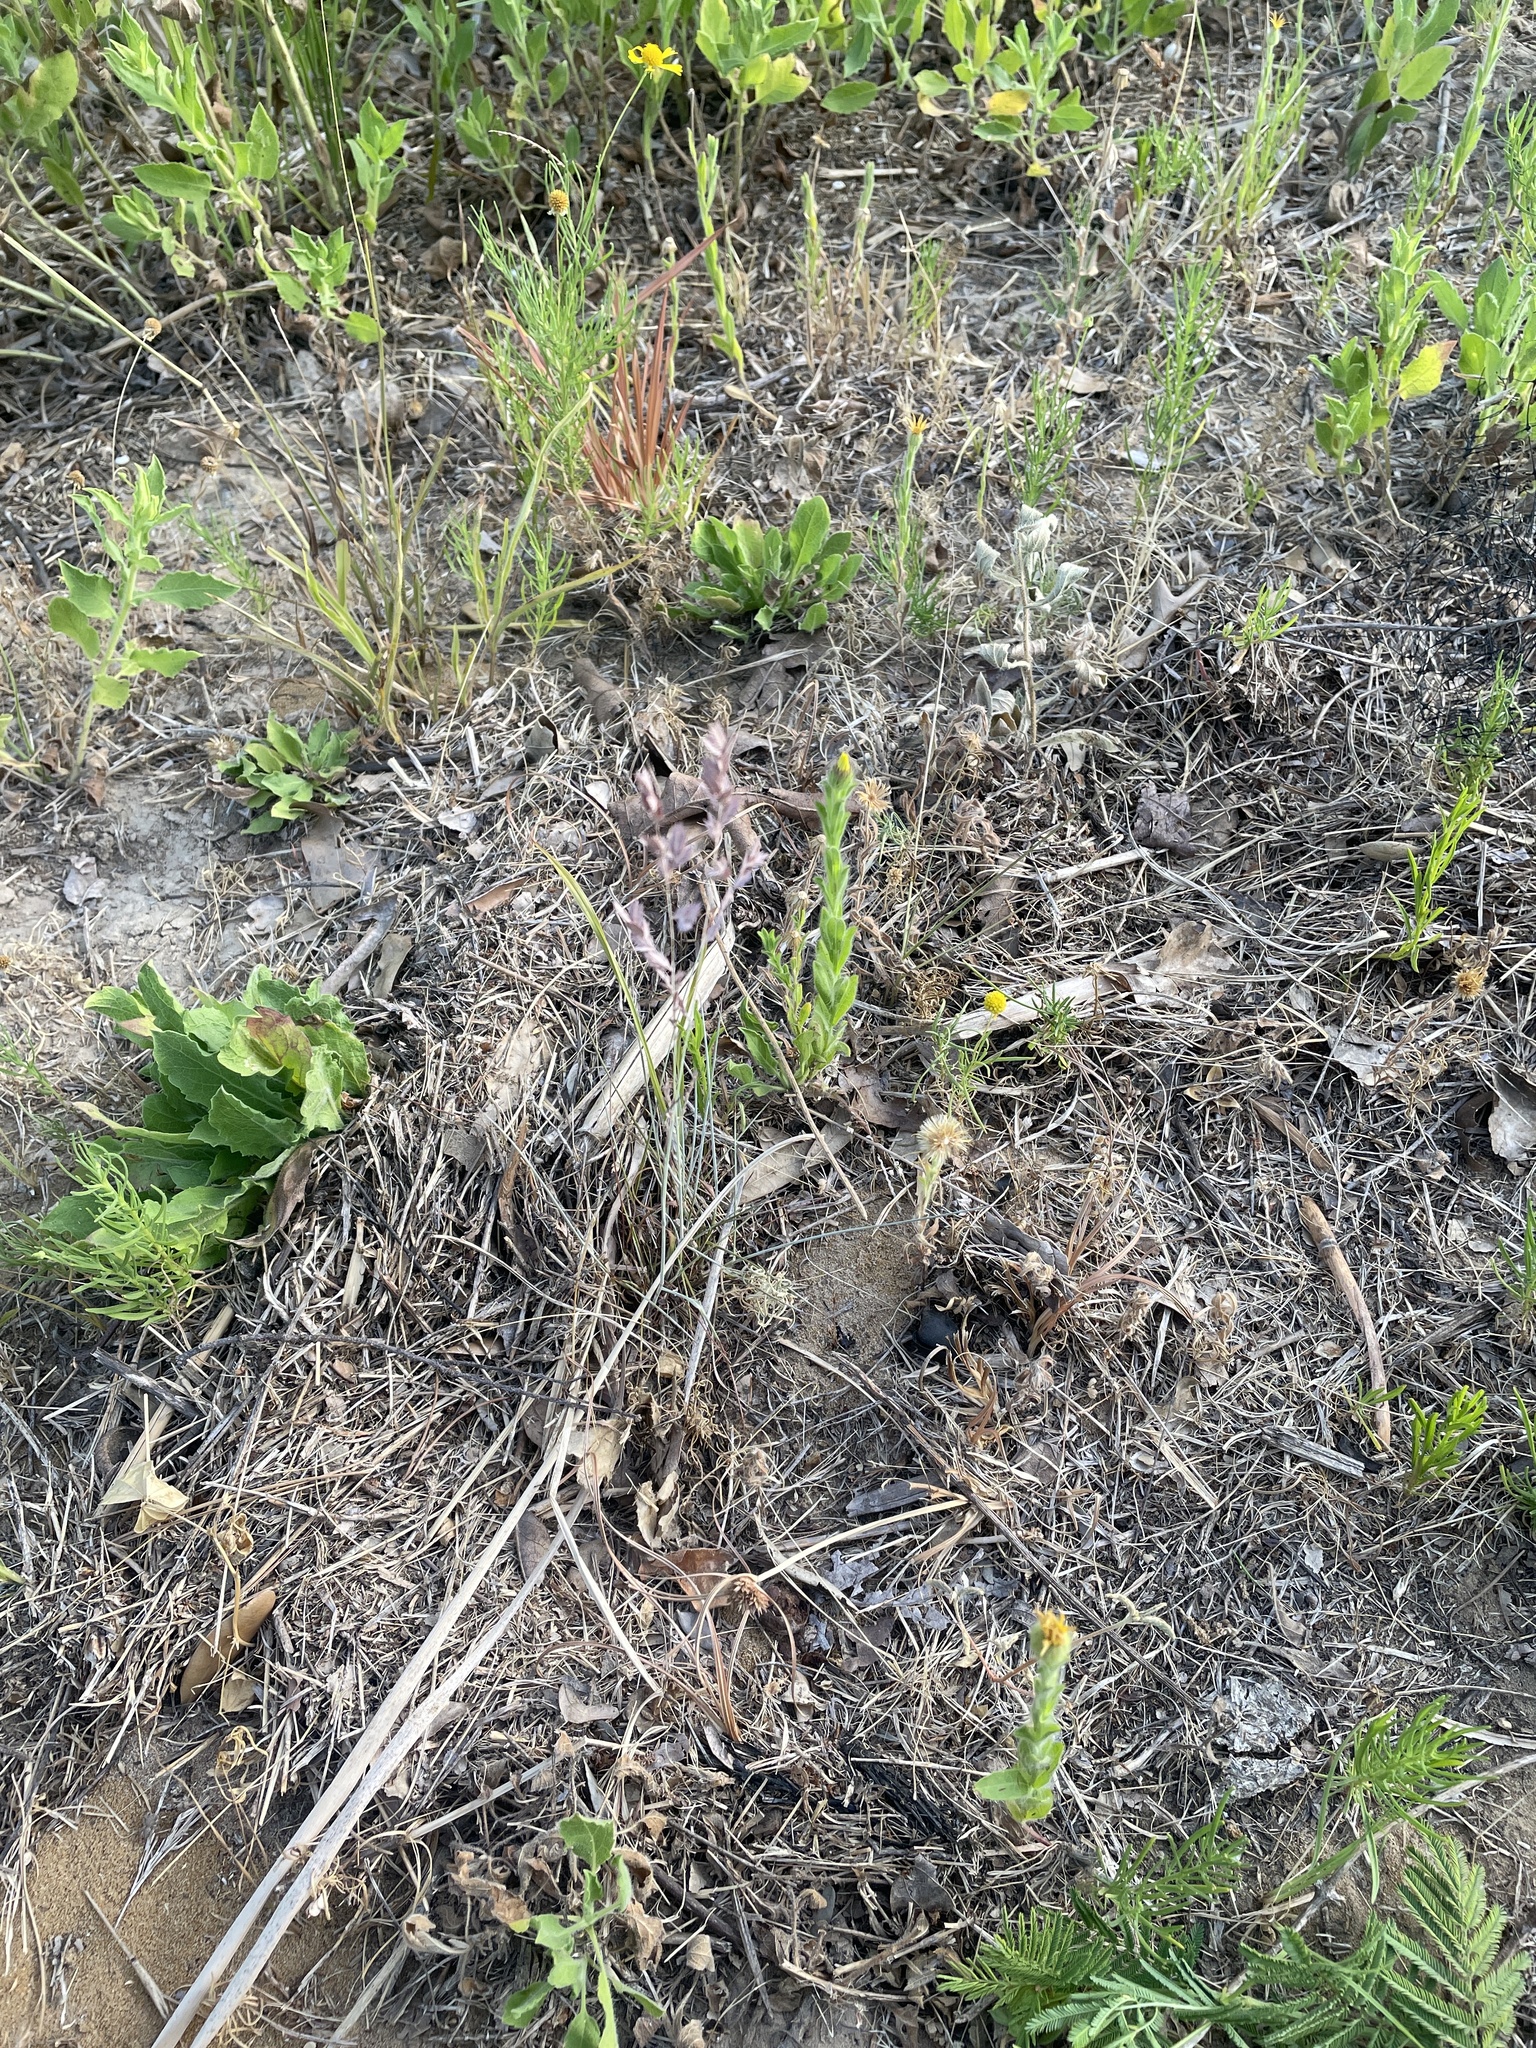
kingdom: Plantae
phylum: Tracheophyta
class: Liliopsida
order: Poales
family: Poaceae
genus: Eragrostis
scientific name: Eragrostis secundiflora
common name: Red love grass
